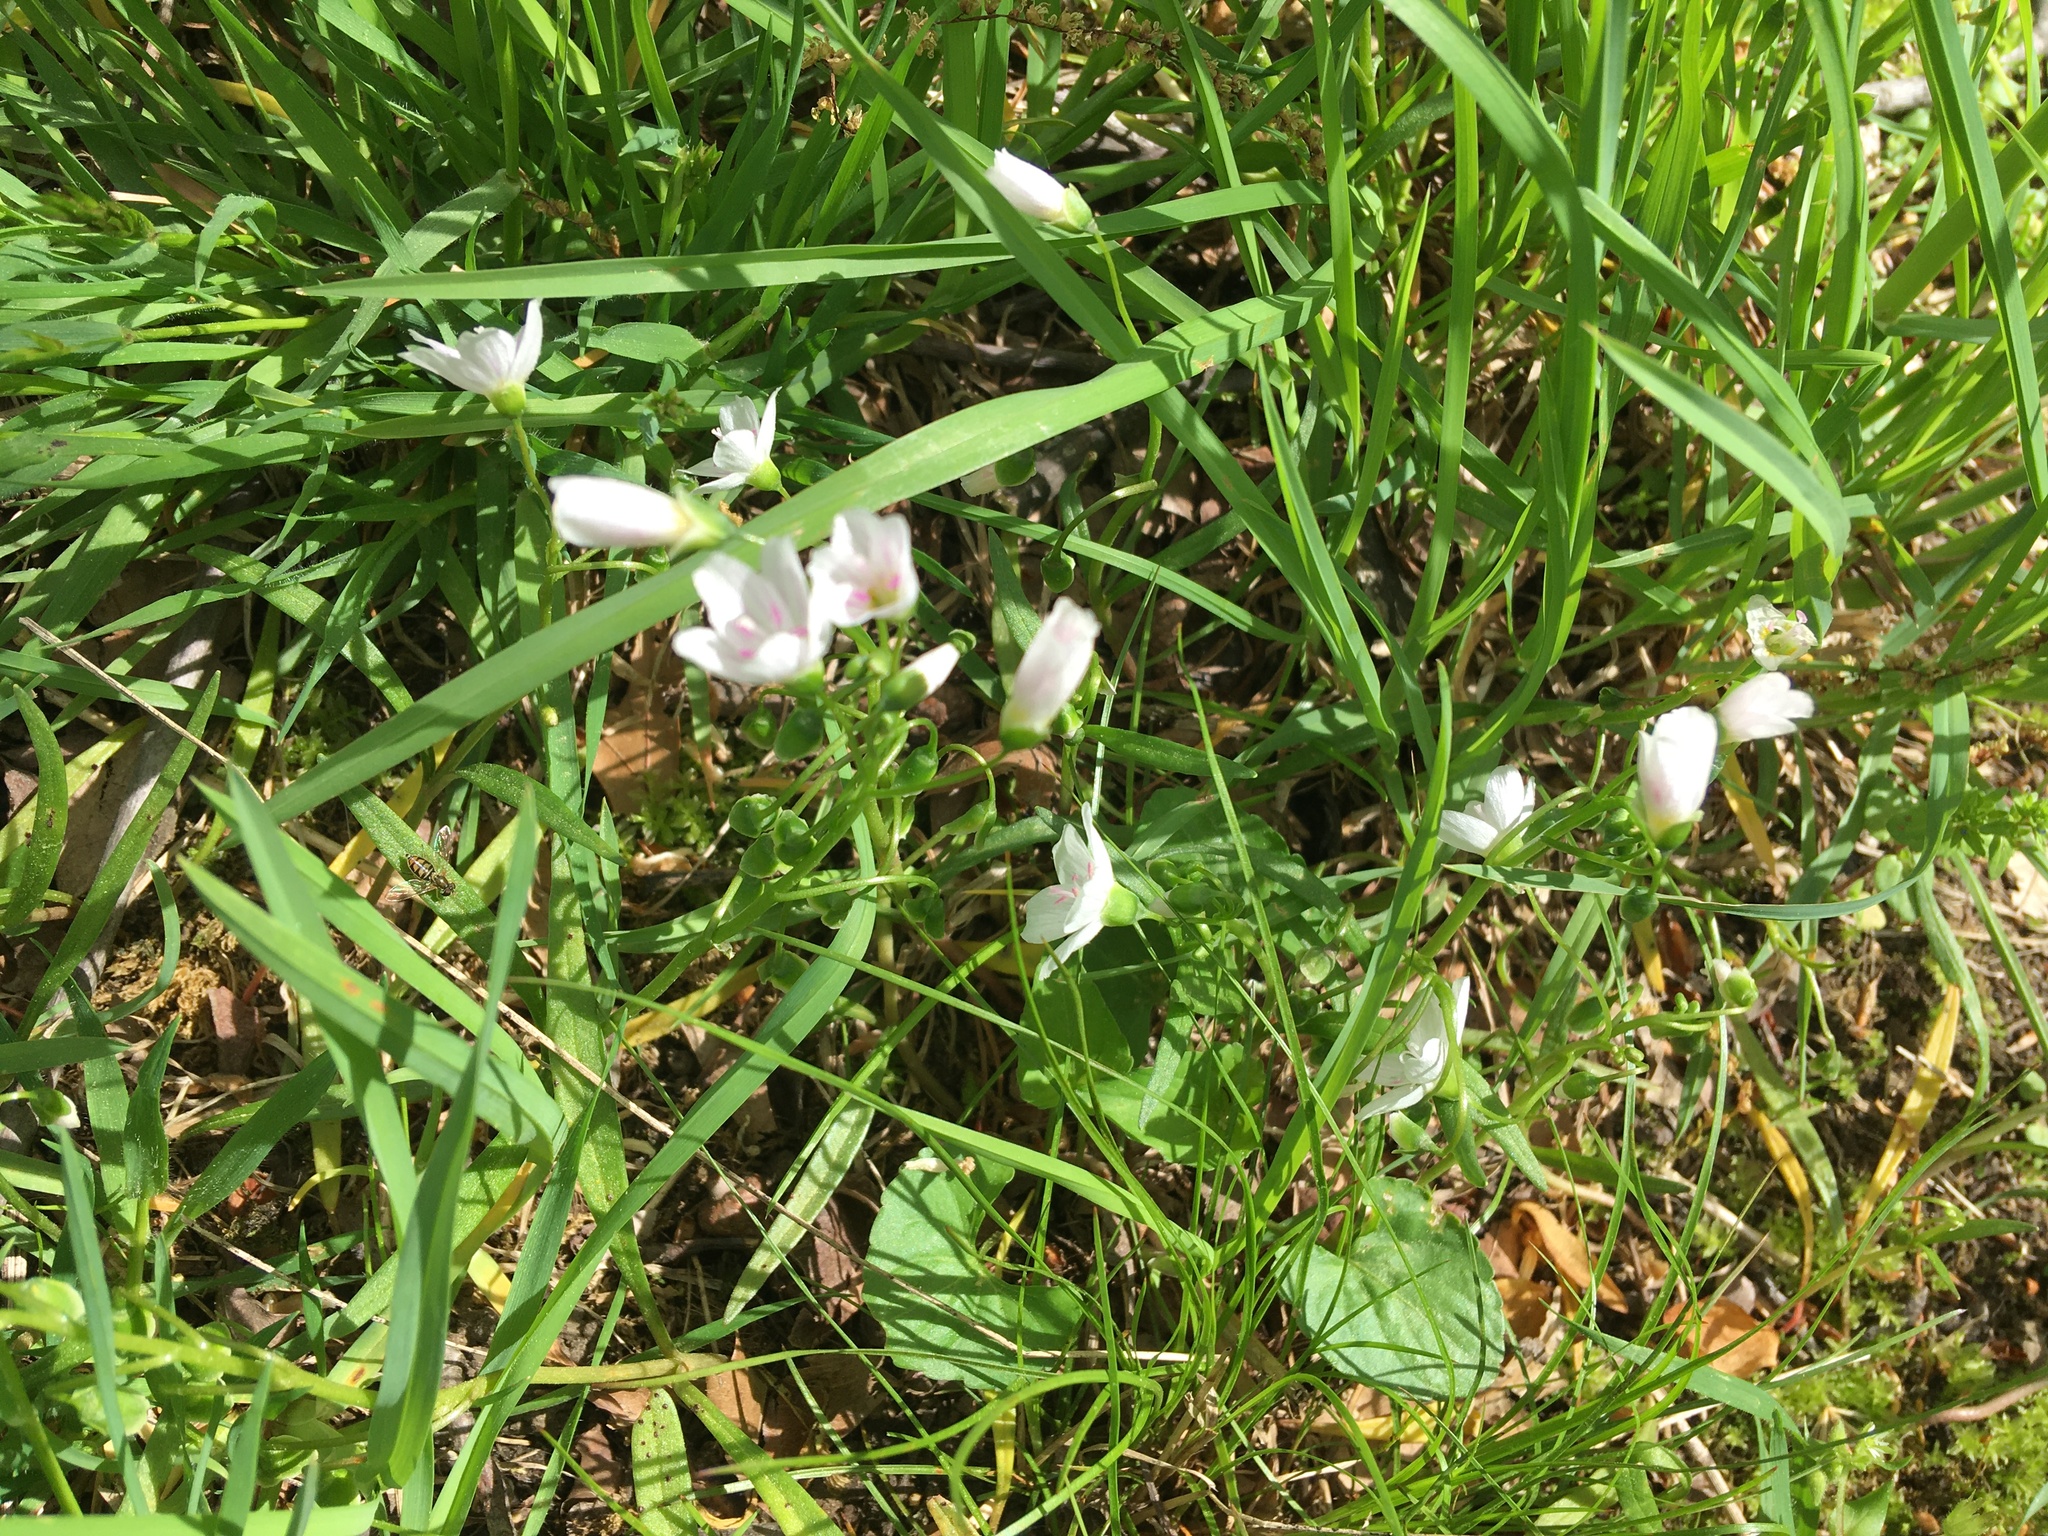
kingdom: Plantae
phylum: Tracheophyta
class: Magnoliopsida
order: Caryophyllales
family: Montiaceae
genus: Claytonia
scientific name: Claytonia virginica
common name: Virginia springbeauty
